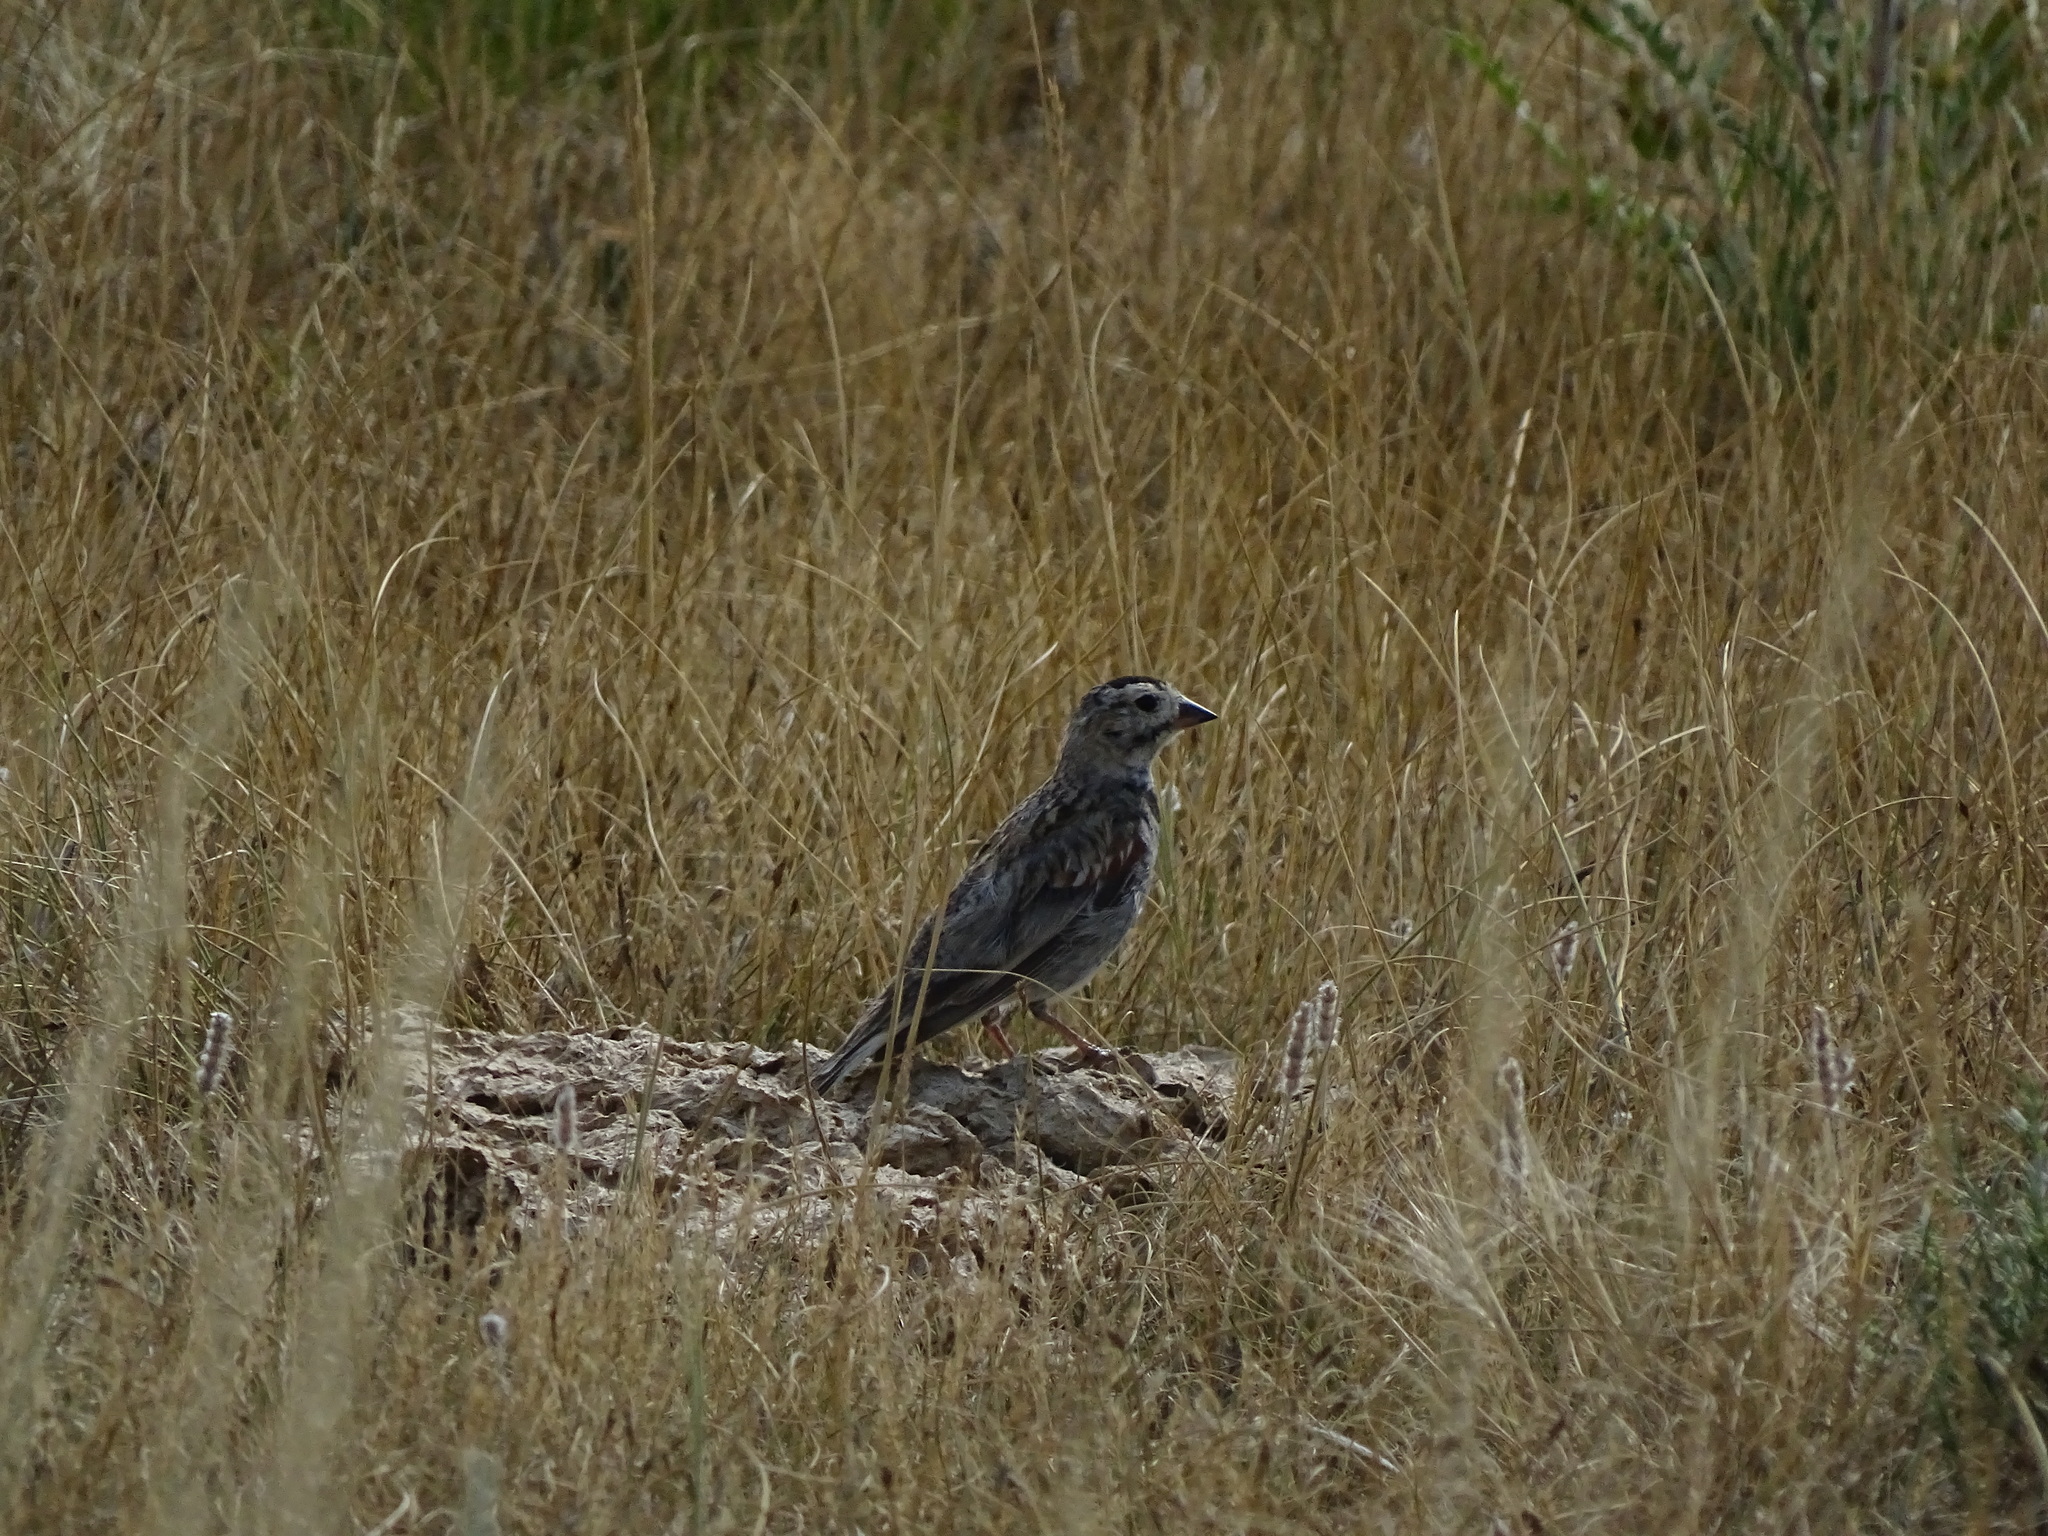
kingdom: Animalia
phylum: Chordata
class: Aves
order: Passeriformes
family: Calcariidae
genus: Rhynchophanes
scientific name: Rhynchophanes mccownii
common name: Mccown's longspur
